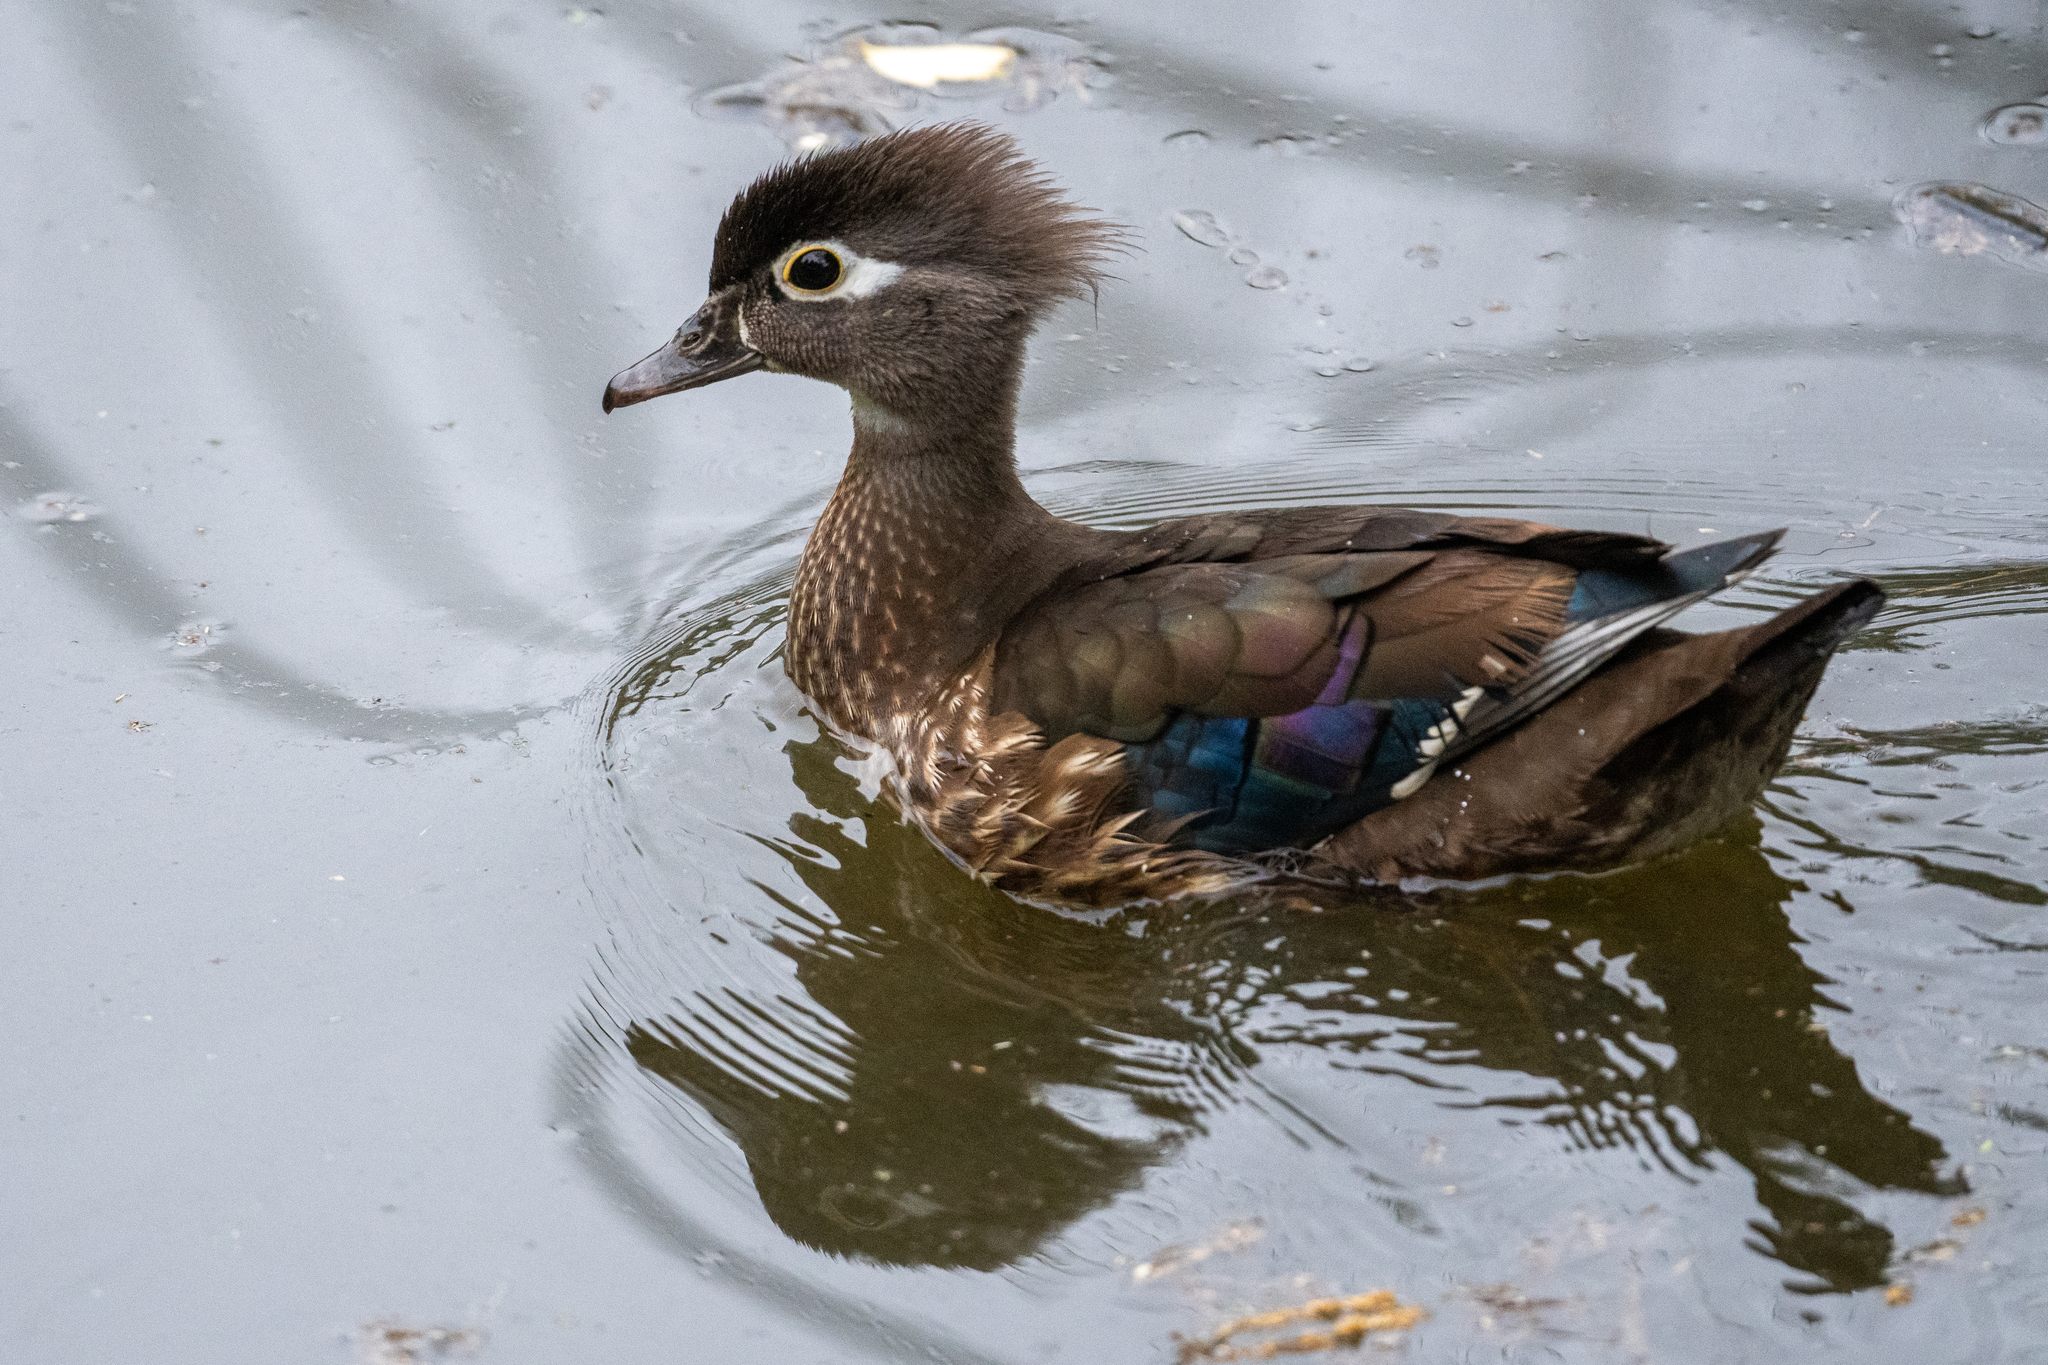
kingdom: Animalia
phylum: Chordata
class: Aves
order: Anseriformes
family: Anatidae
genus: Aix
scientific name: Aix sponsa
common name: Wood duck
